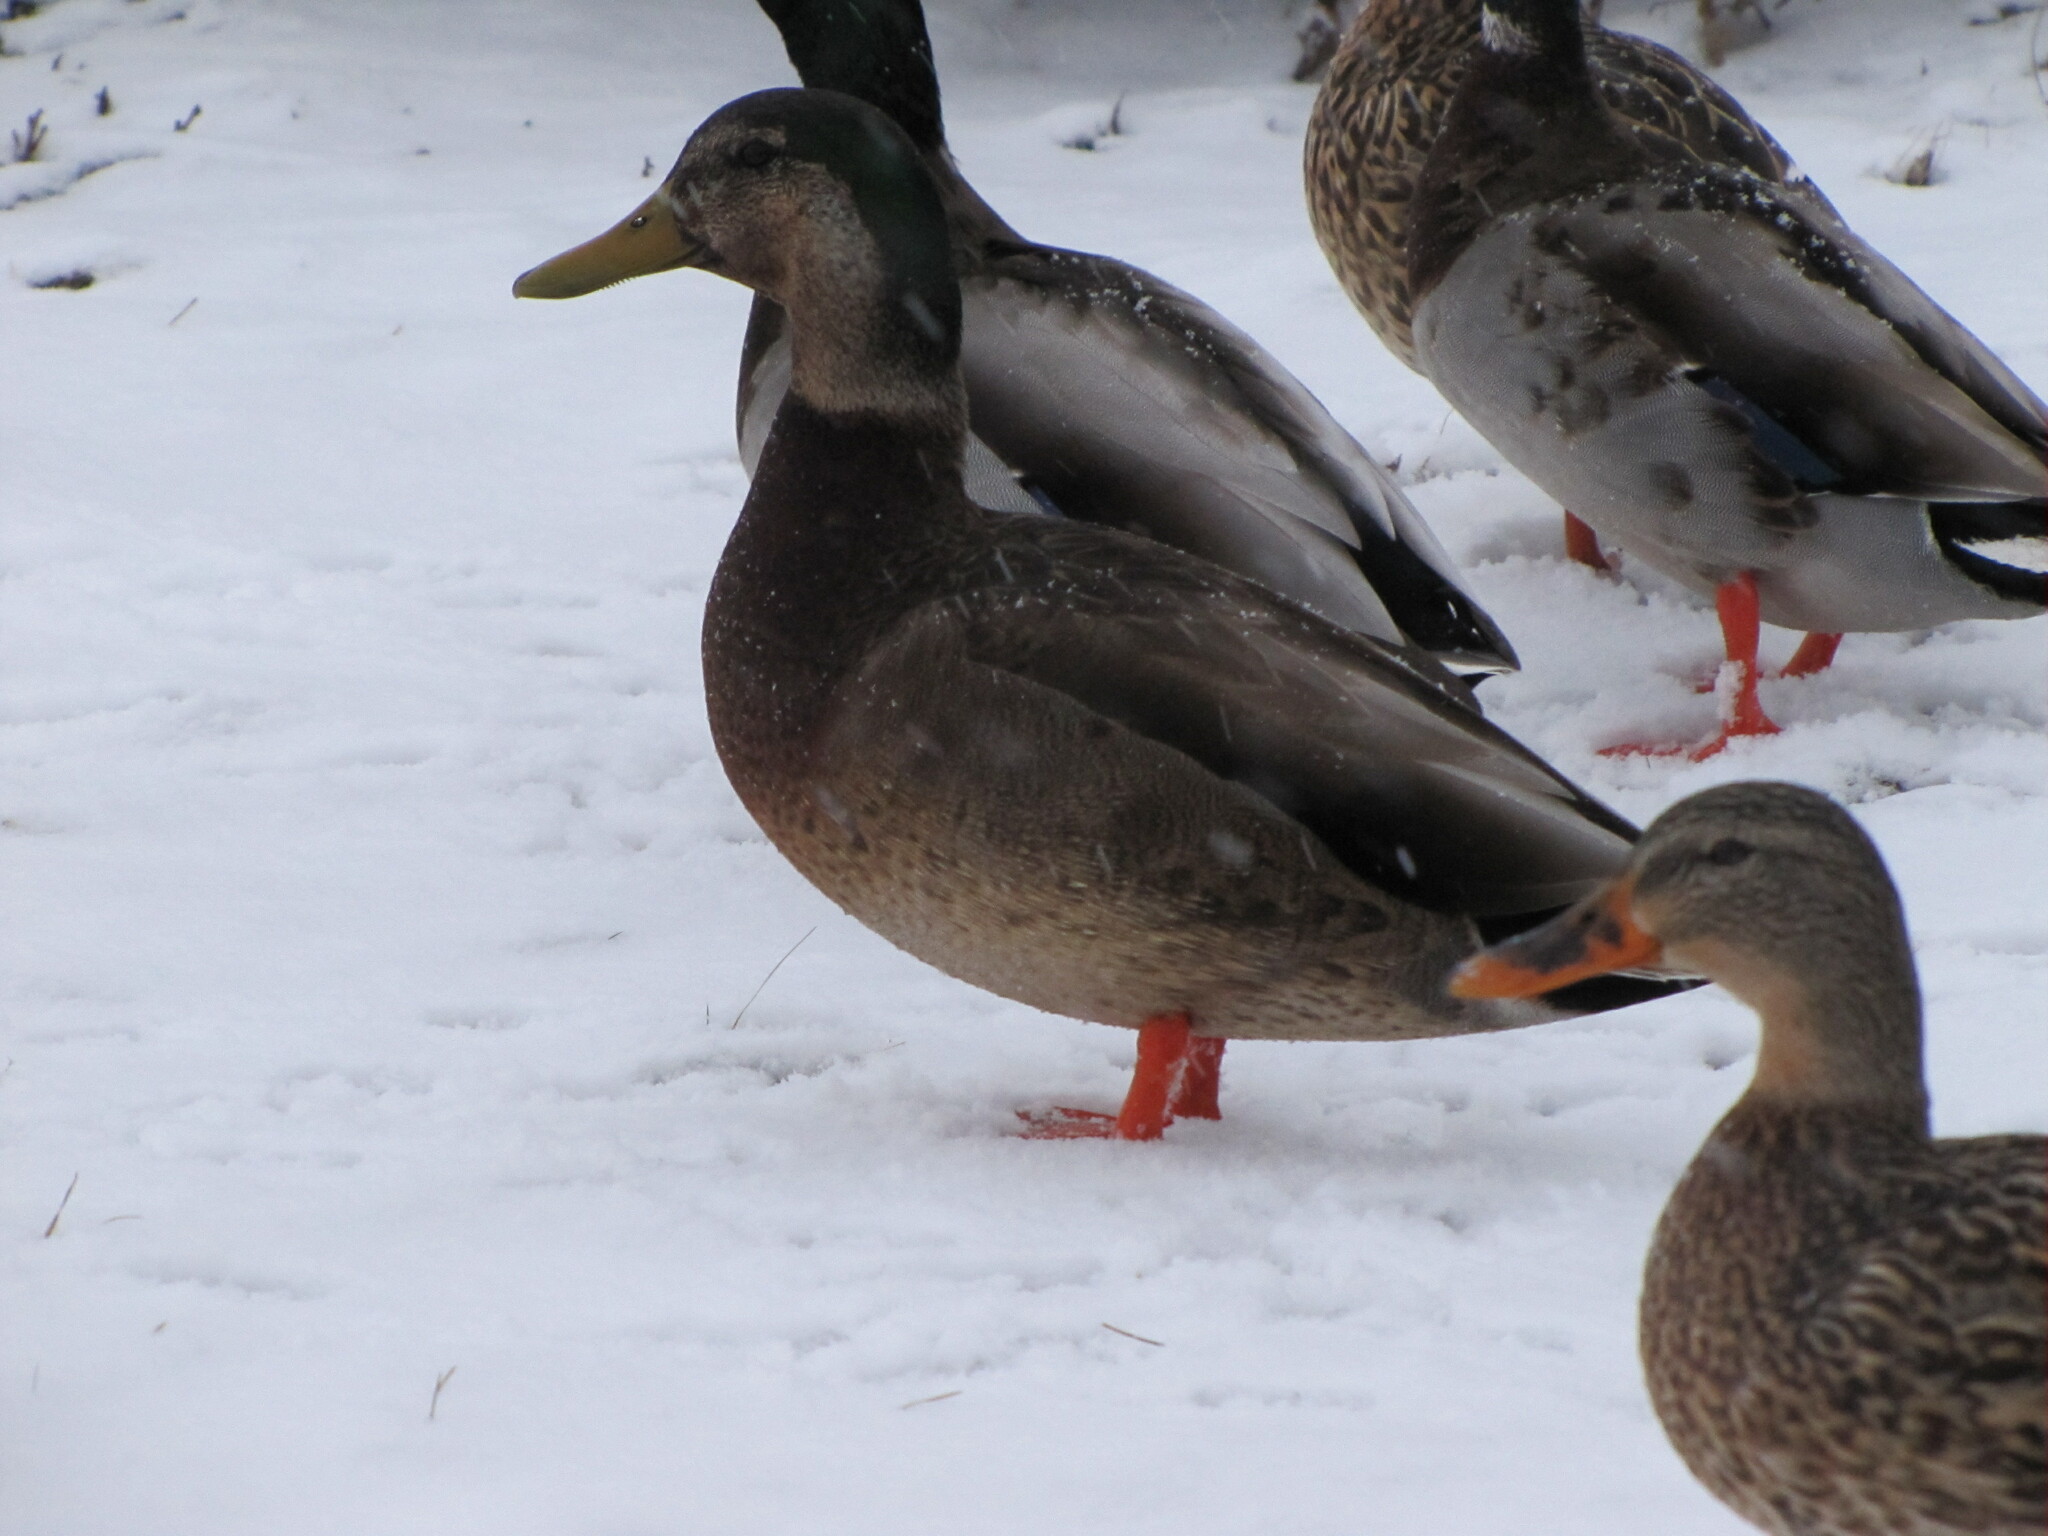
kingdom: Animalia
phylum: Chordata
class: Aves
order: Anseriformes
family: Anatidae
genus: Anas
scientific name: Anas
